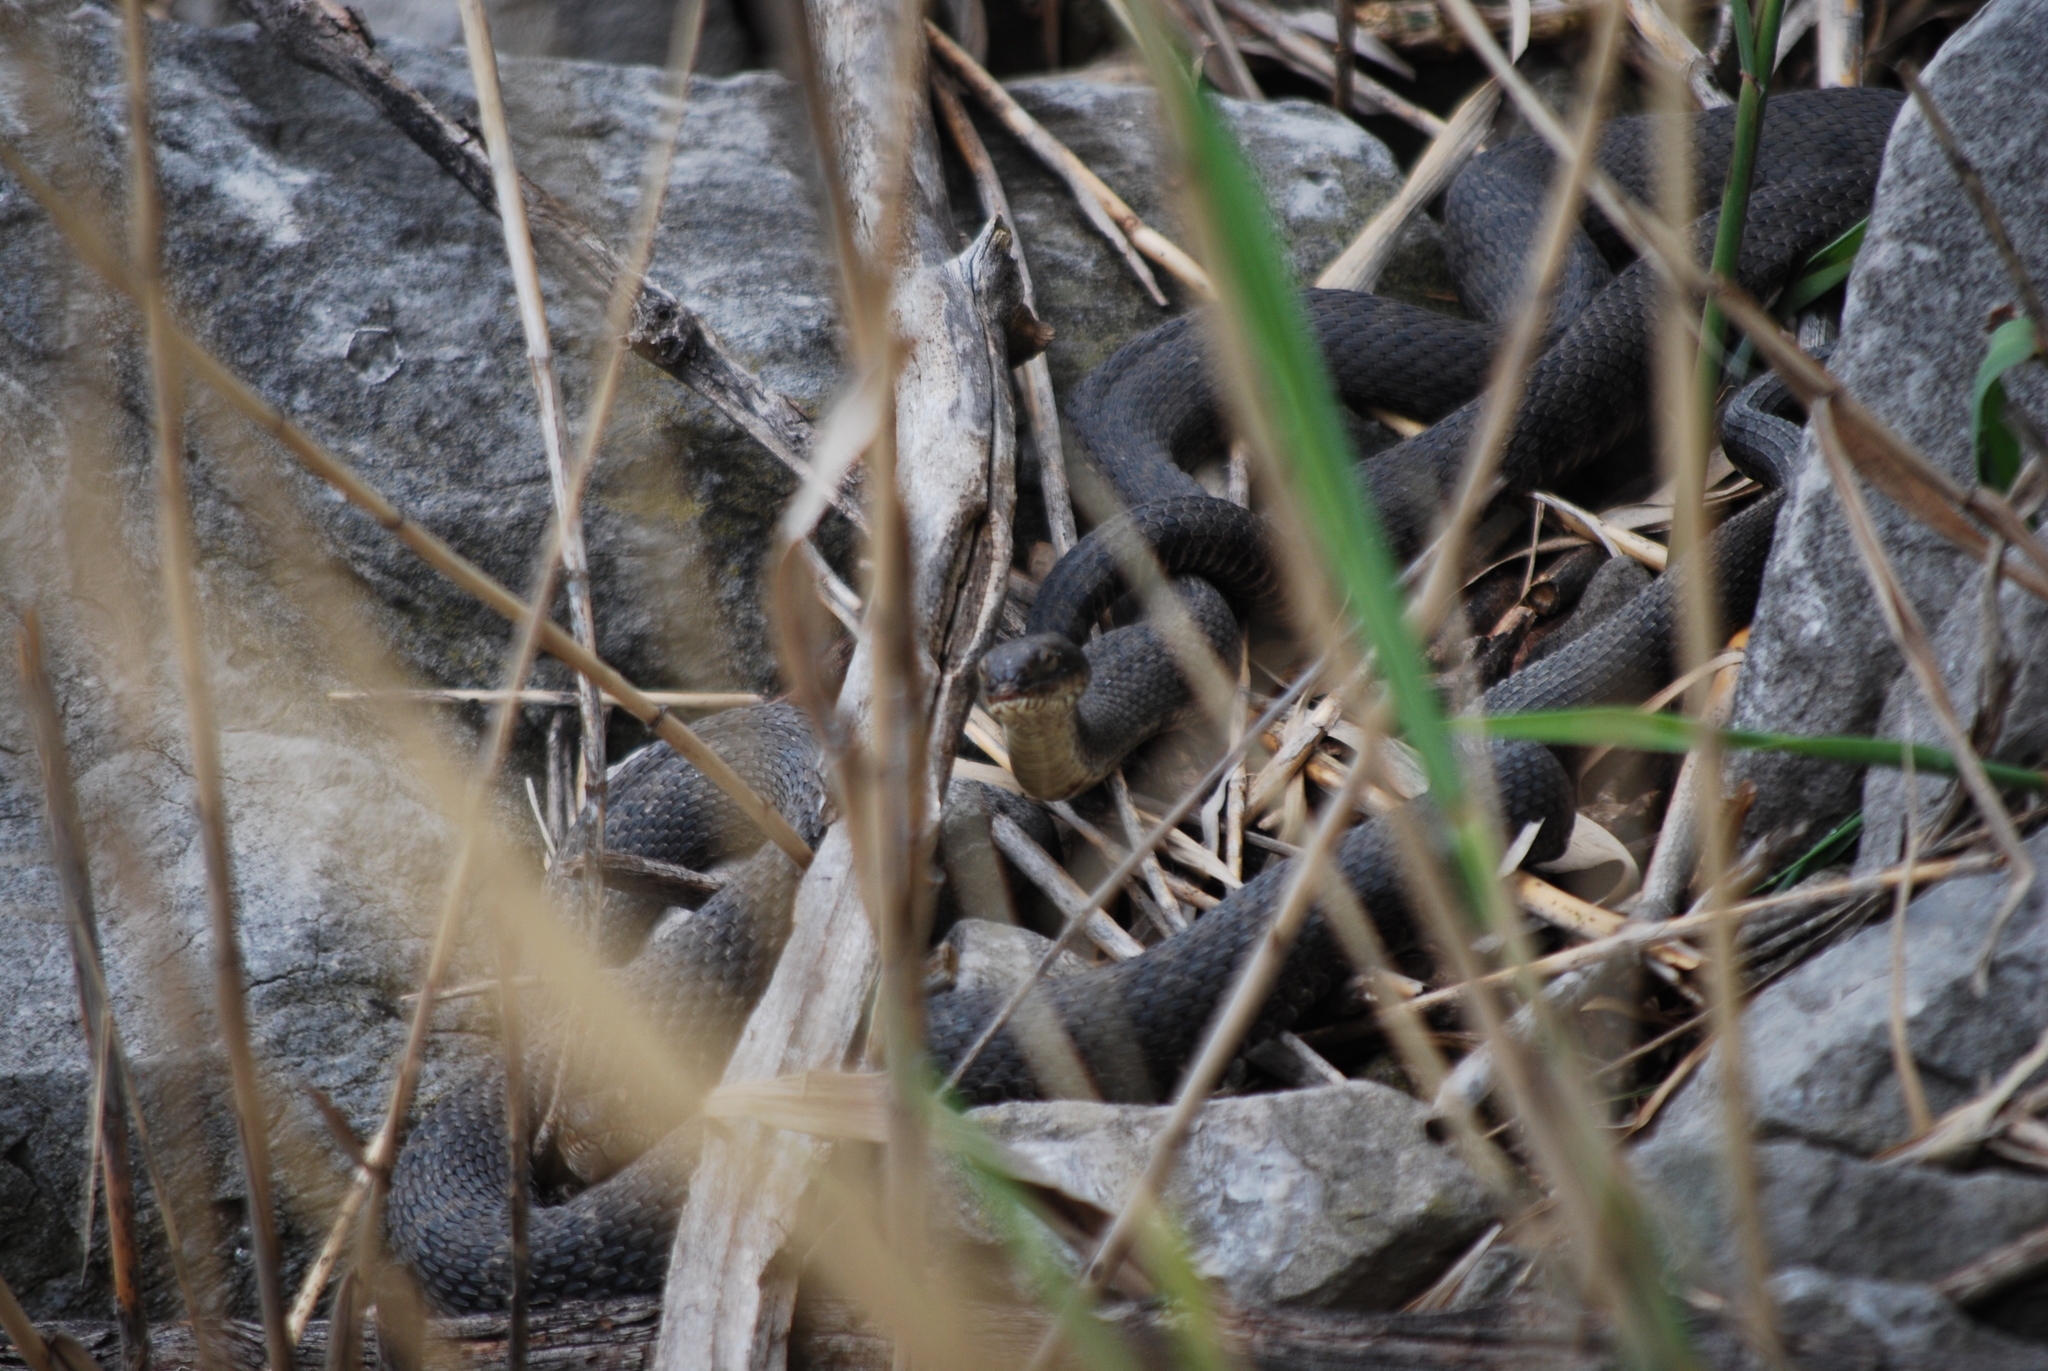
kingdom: Animalia
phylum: Chordata
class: Squamata
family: Colubridae
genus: Nerodia
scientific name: Nerodia sipedon
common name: Northern water snake
